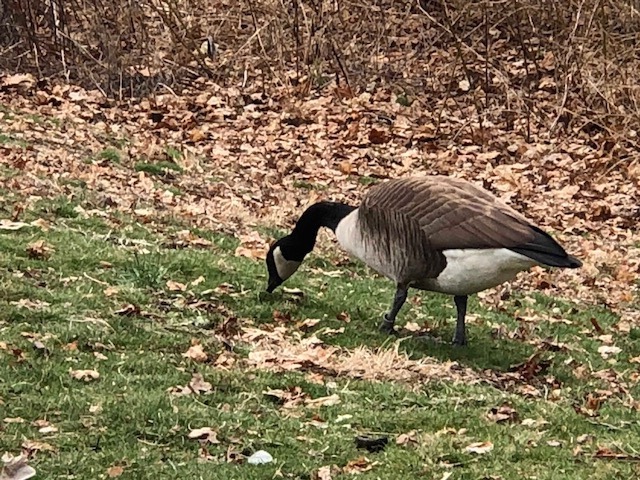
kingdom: Animalia
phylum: Chordata
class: Aves
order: Anseriformes
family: Anatidae
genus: Branta
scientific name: Branta canadensis
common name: Canada goose
